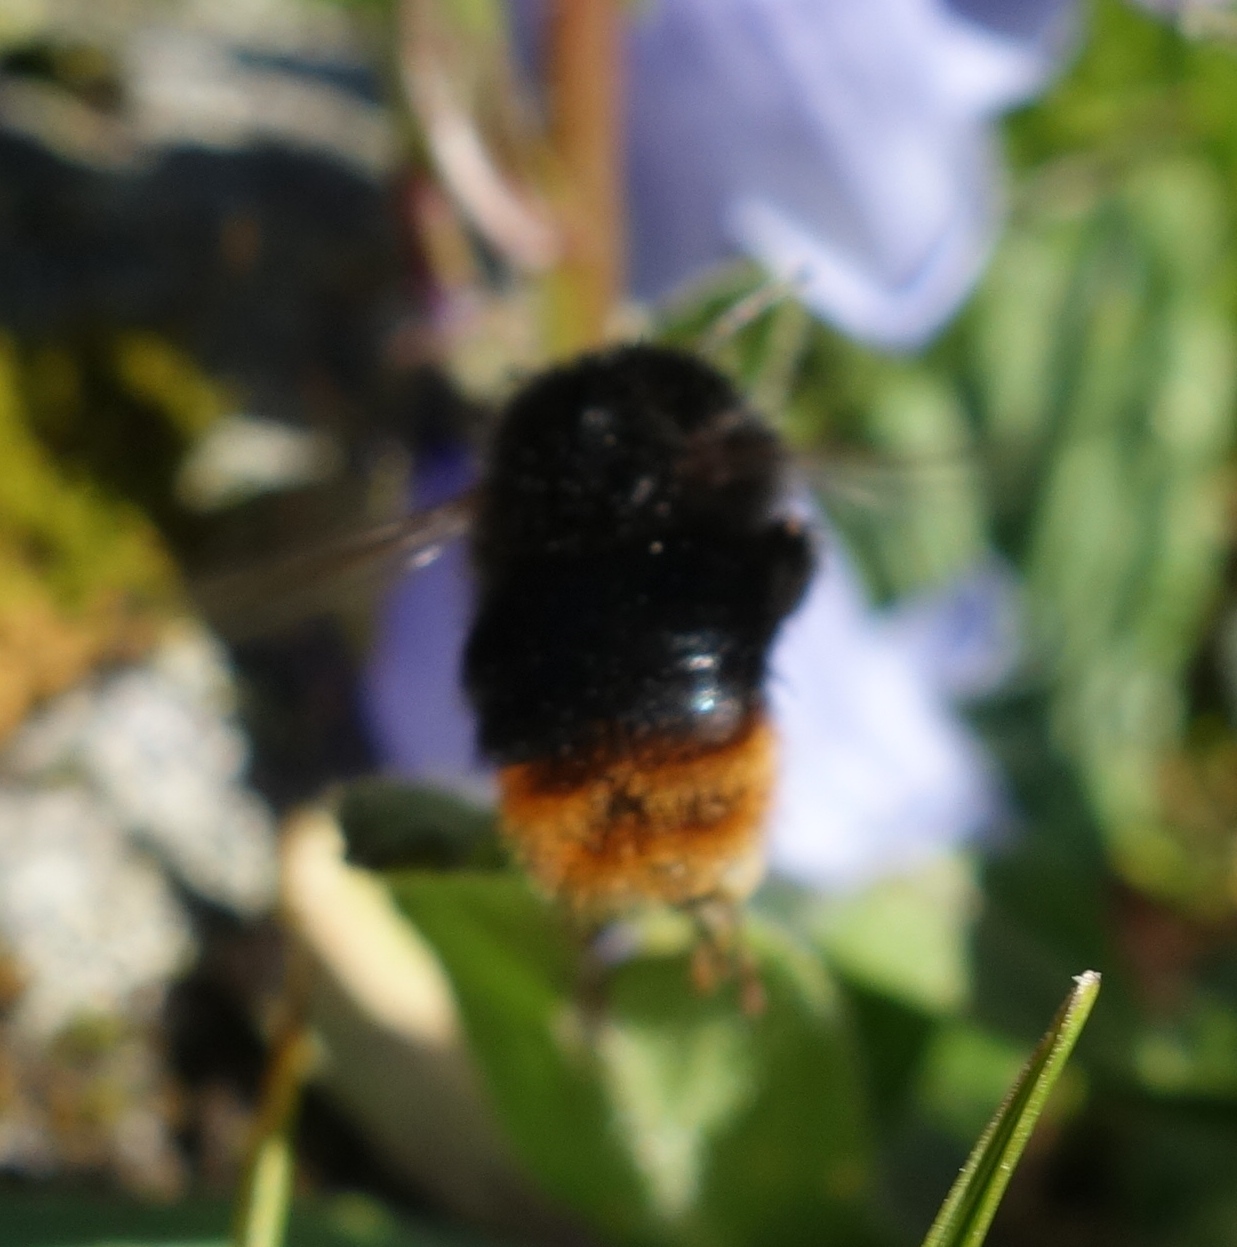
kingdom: Animalia
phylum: Arthropoda
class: Insecta
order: Hymenoptera
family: Apidae
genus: Bombus
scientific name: Bombus lapidarius
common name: Large red-tailed humble-bee
